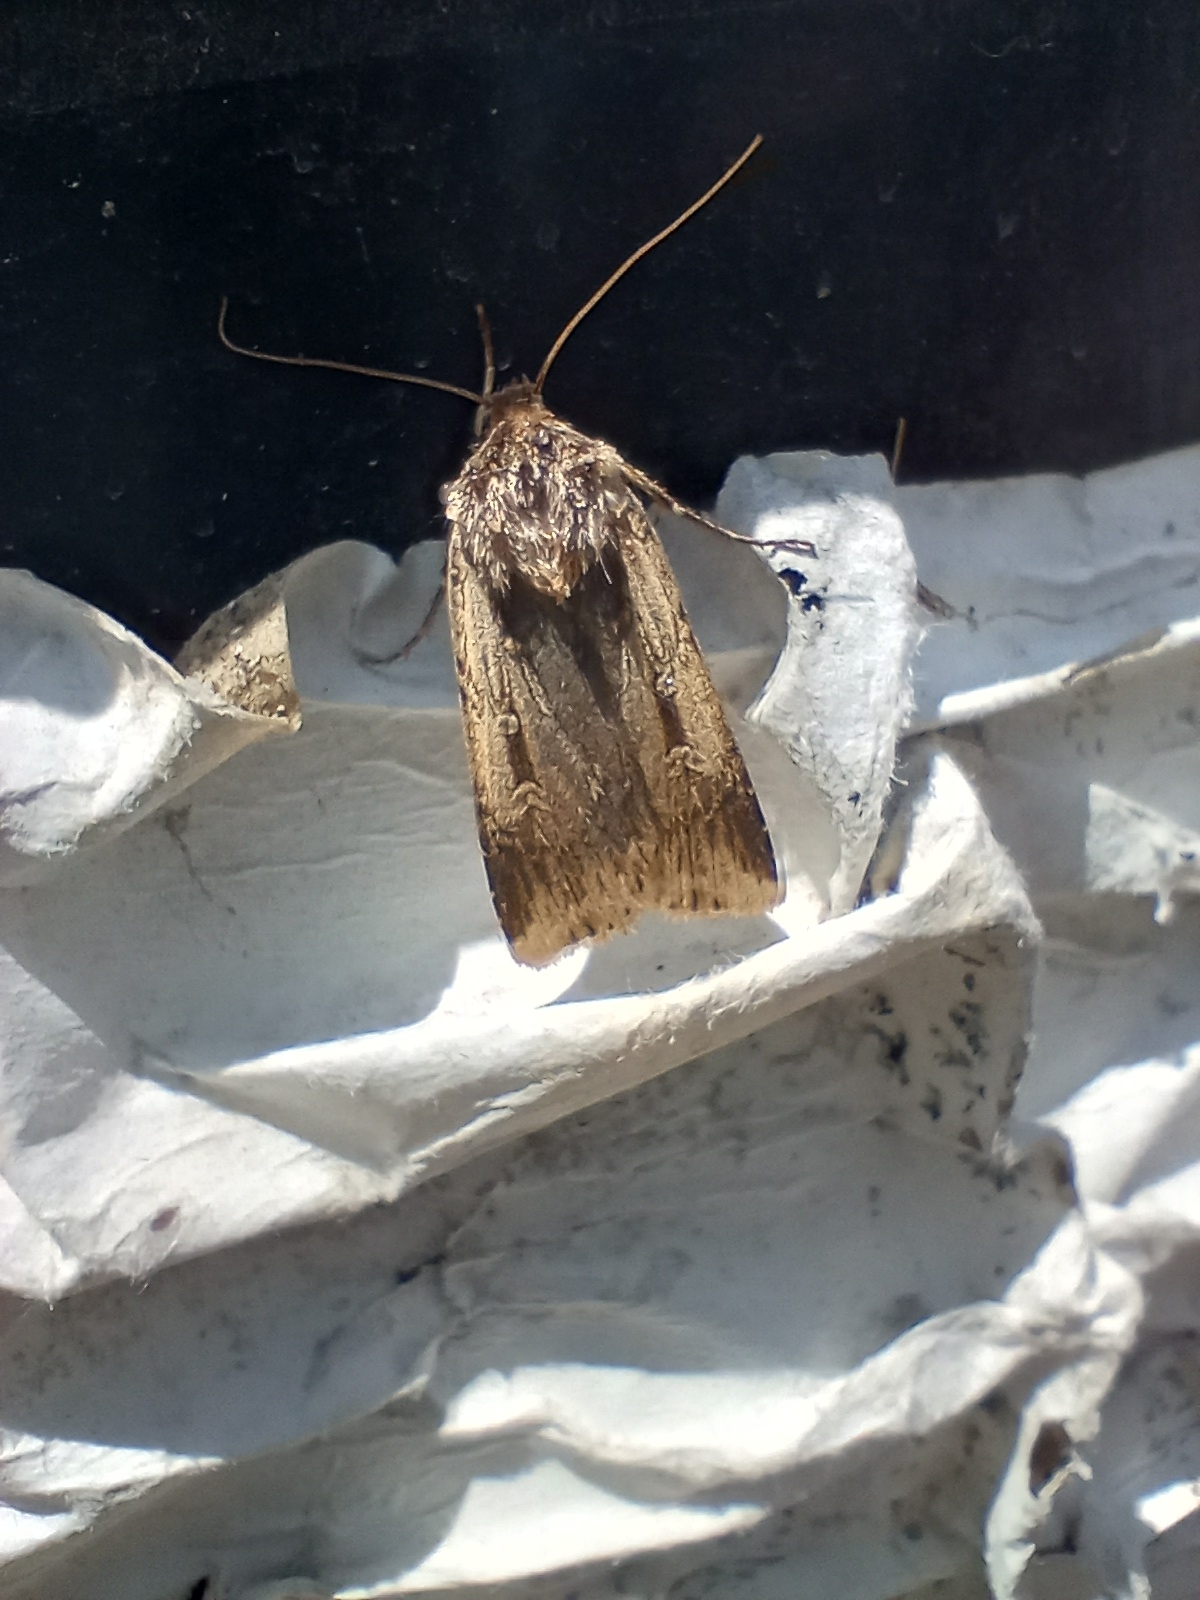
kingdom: Animalia
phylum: Arthropoda
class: Insecta
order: Lepidoptera
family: Noctuidae
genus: Feltia
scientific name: Feltia subterranea
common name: Granulate cutworm
